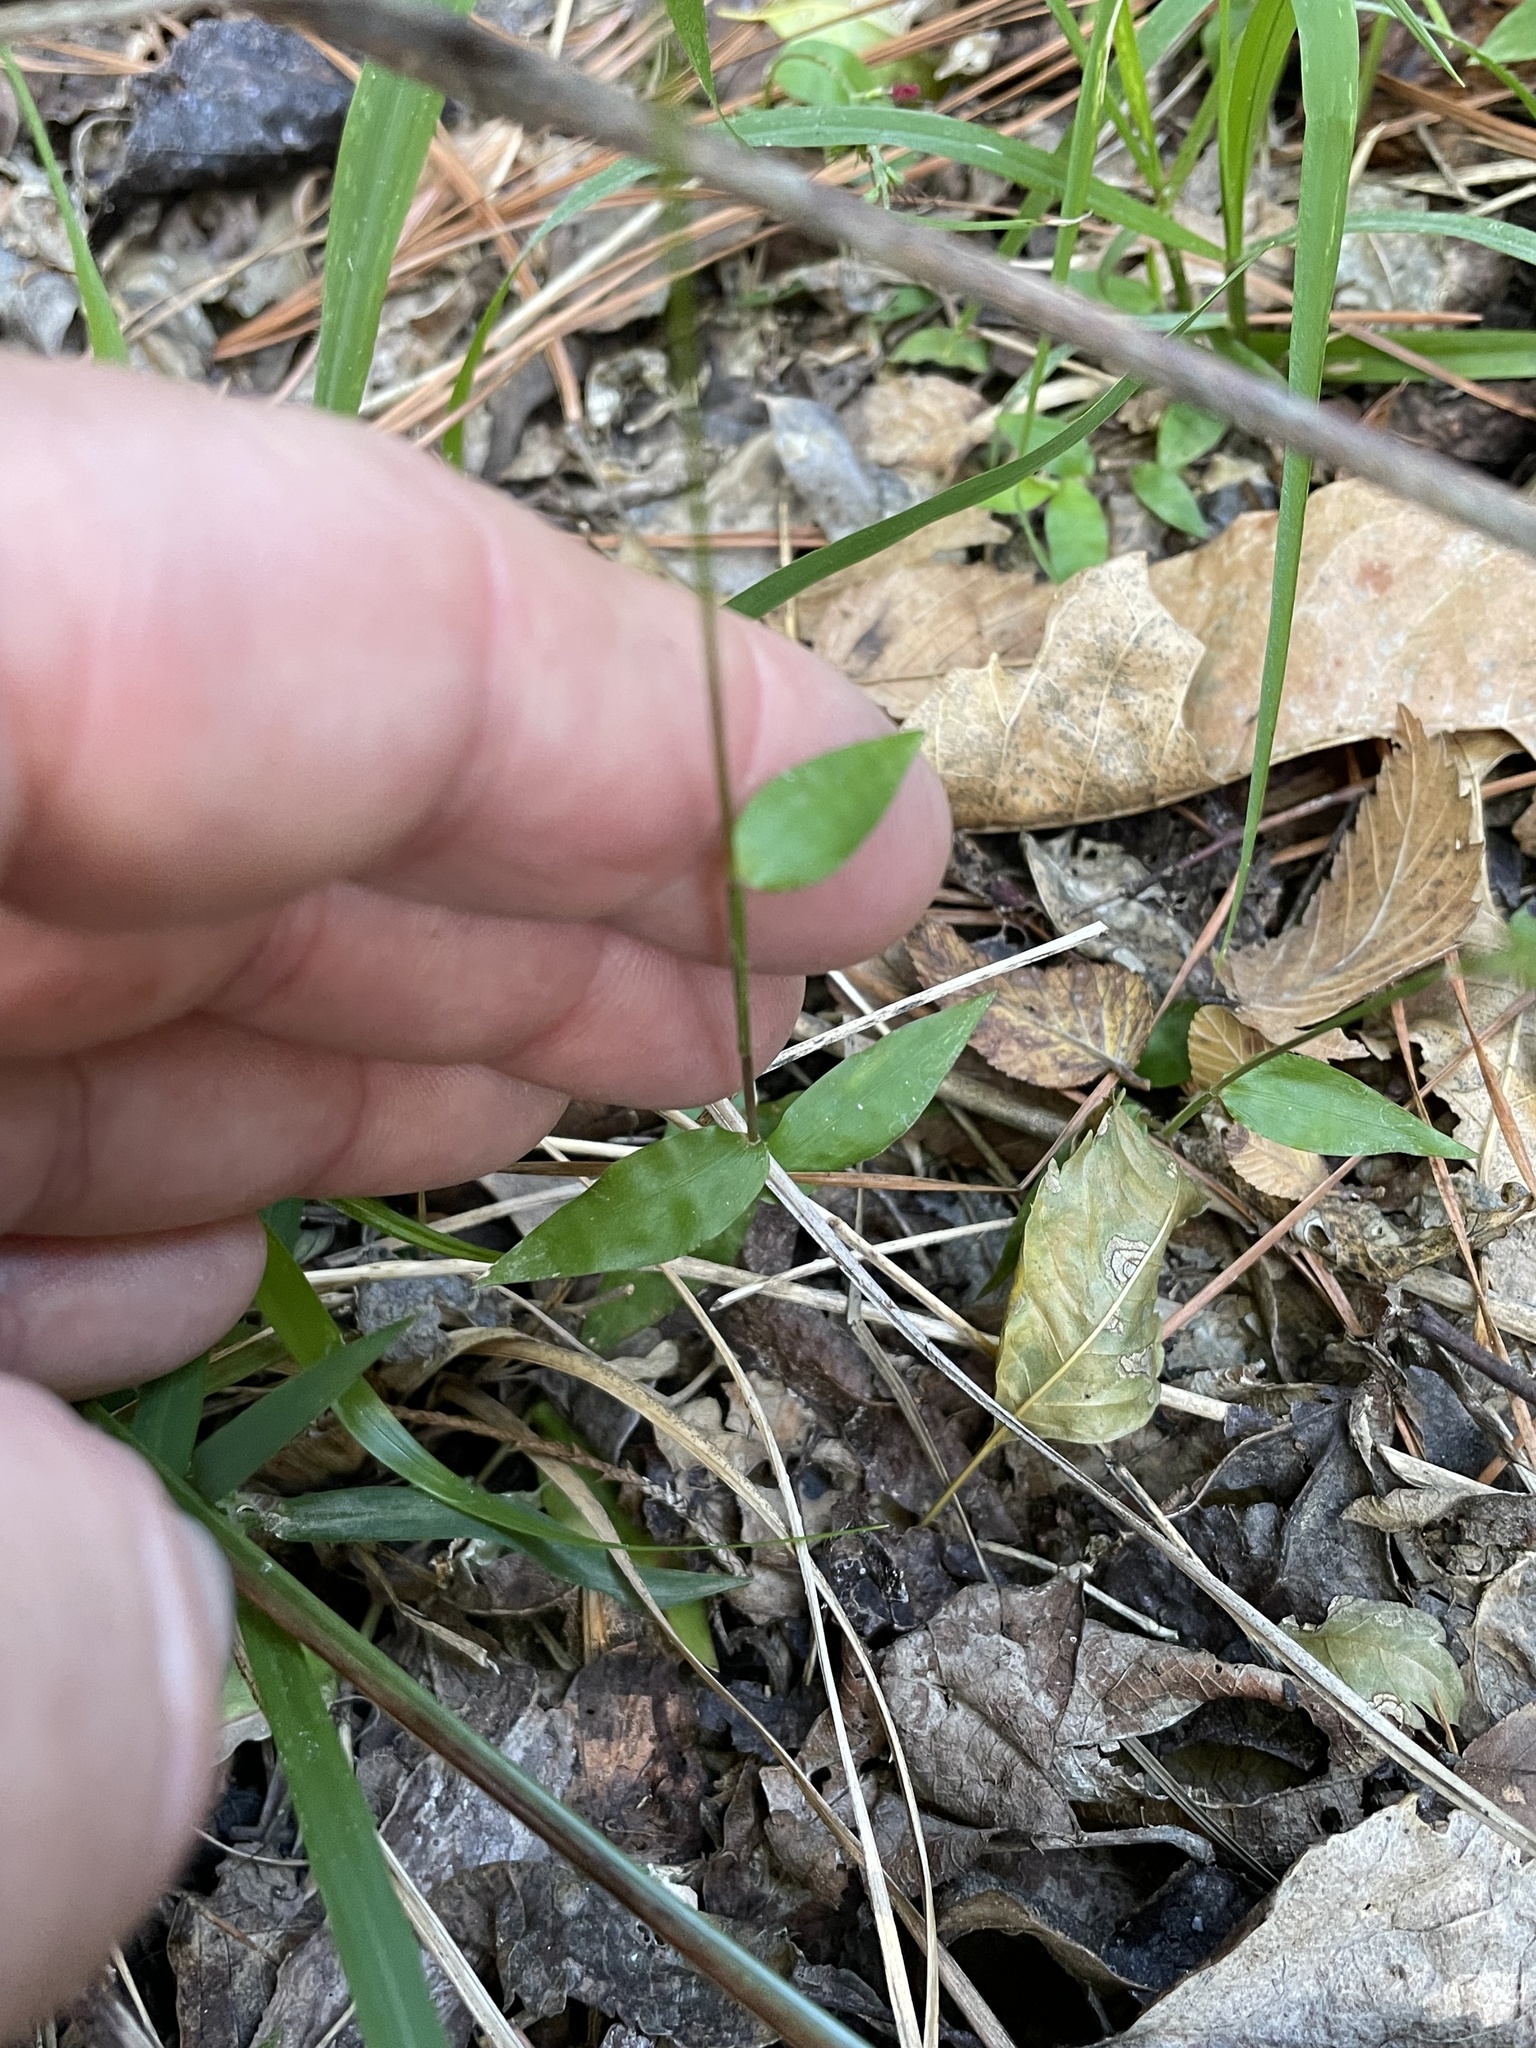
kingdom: Plantae
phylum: Tracheophyta
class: Liliopsida
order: Poales
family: Poaceae
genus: Oplismenus
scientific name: Oplismenus hirtellus
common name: Basketgrass
